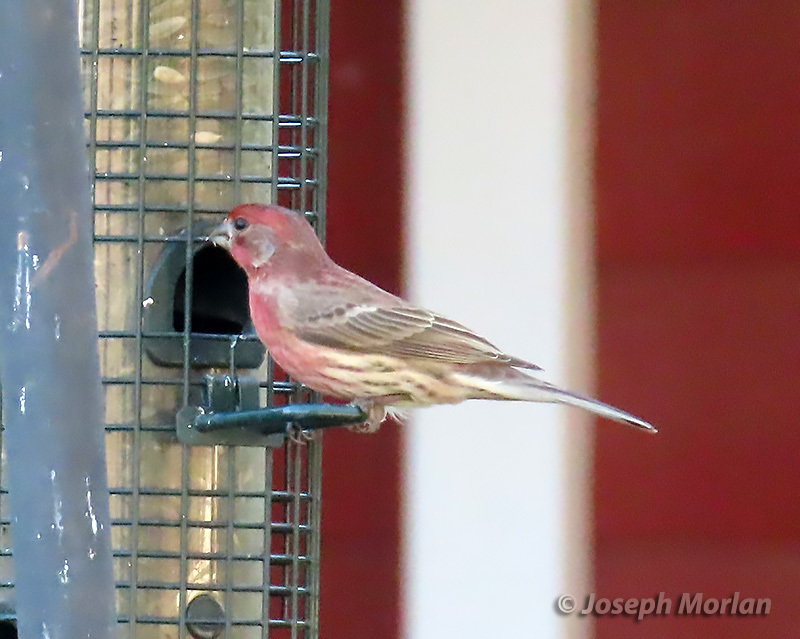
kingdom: Animalia
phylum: Chordata
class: Aves
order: Passeriformes
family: Fringillidae
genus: Haemorhous
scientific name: Haemorhous mexicanus
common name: House finch
